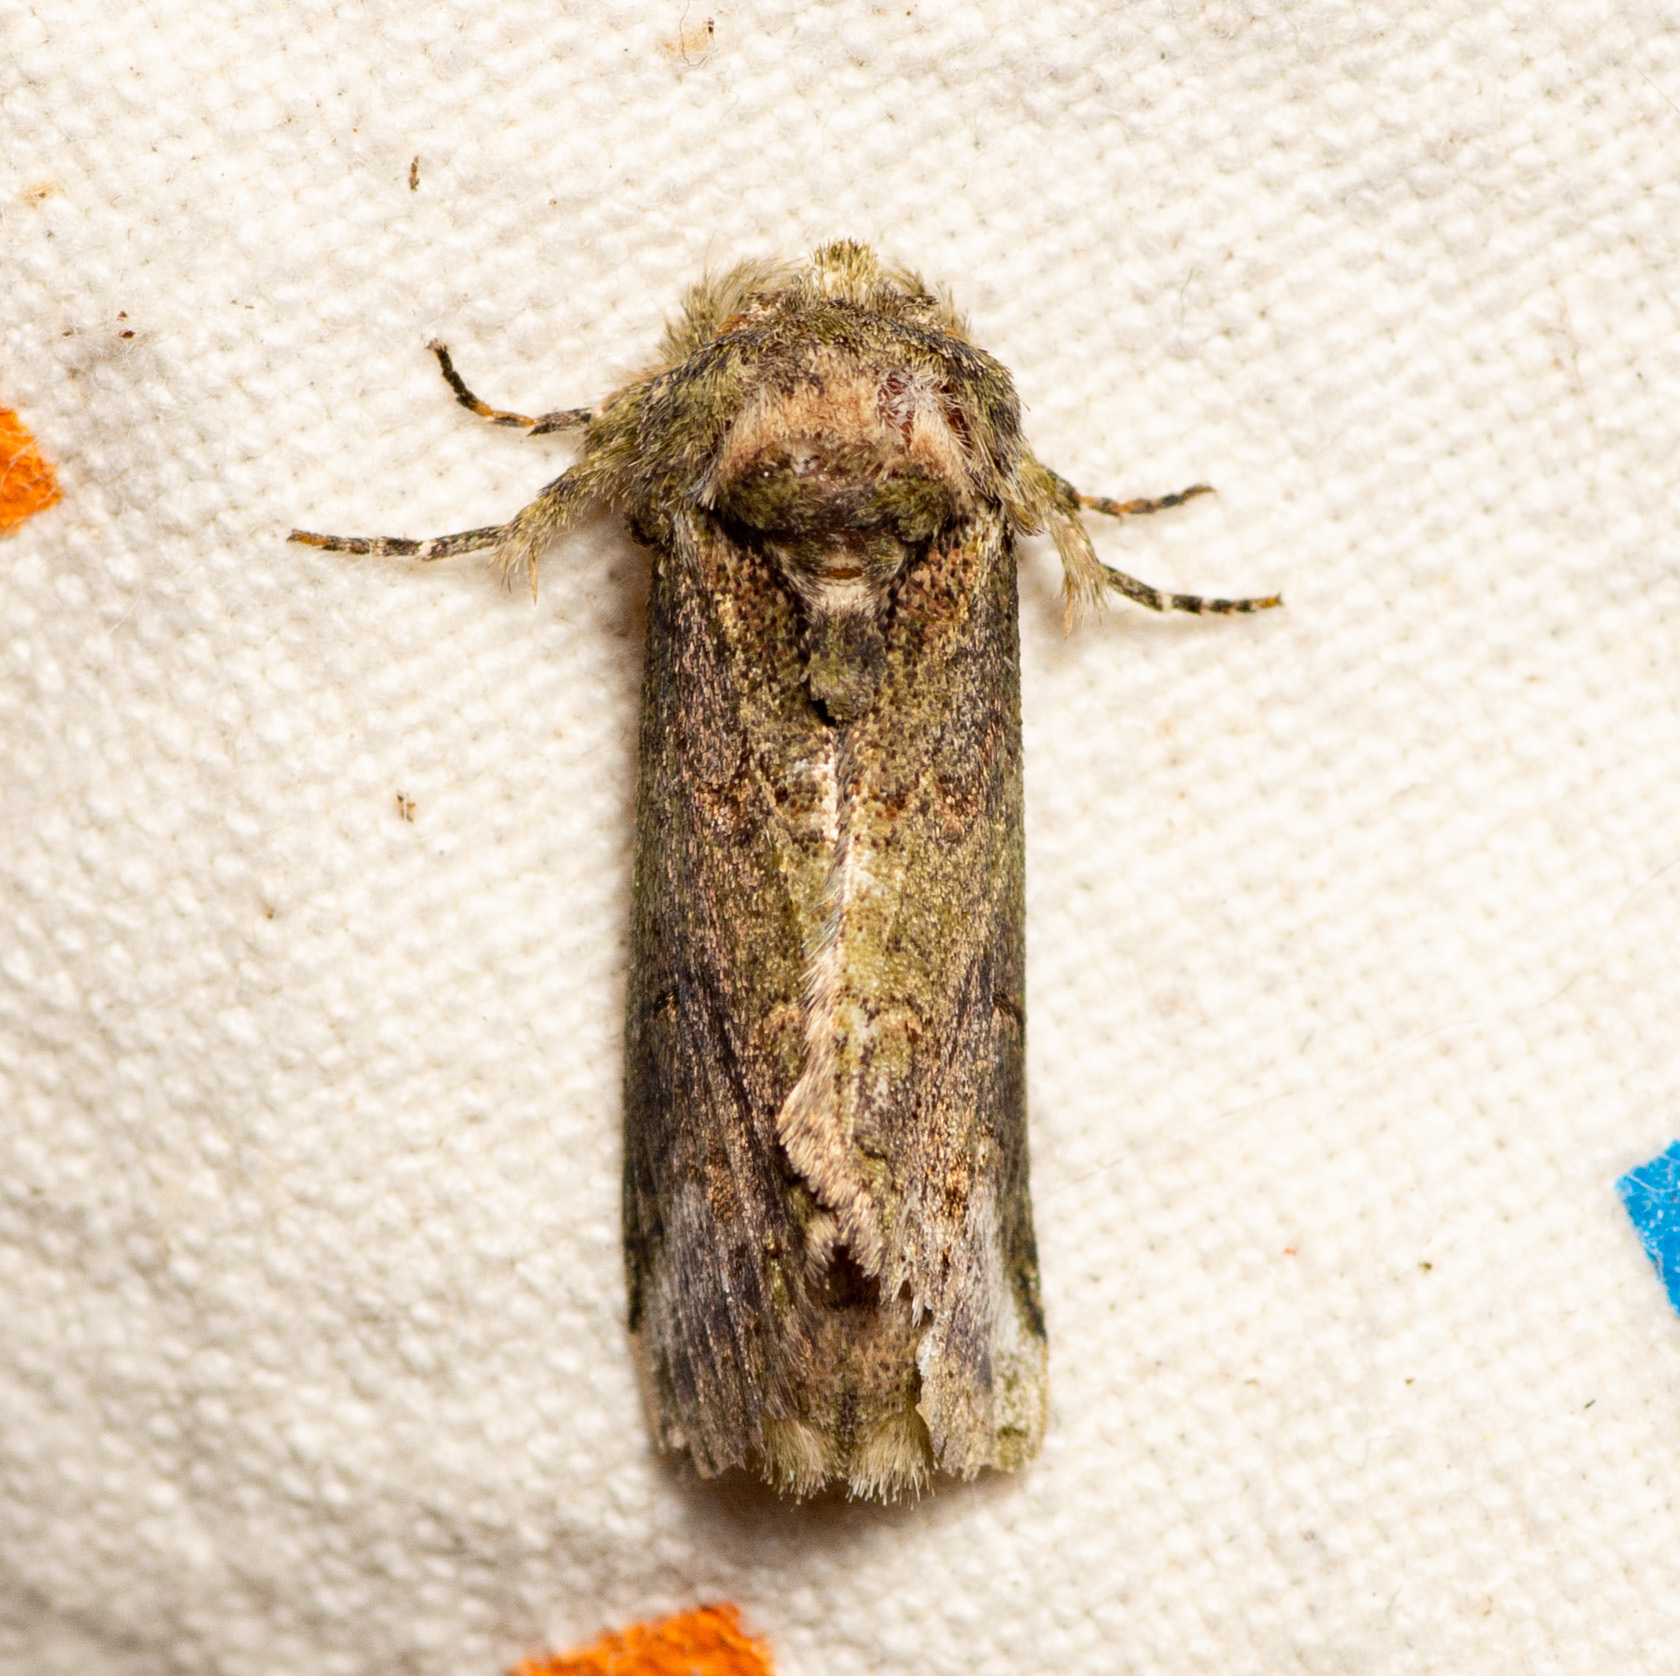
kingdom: Animalia
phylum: Arthropoda
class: Insecta
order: Lepidoptera
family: Notodontidae
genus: Rifargia
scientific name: Rifargia
